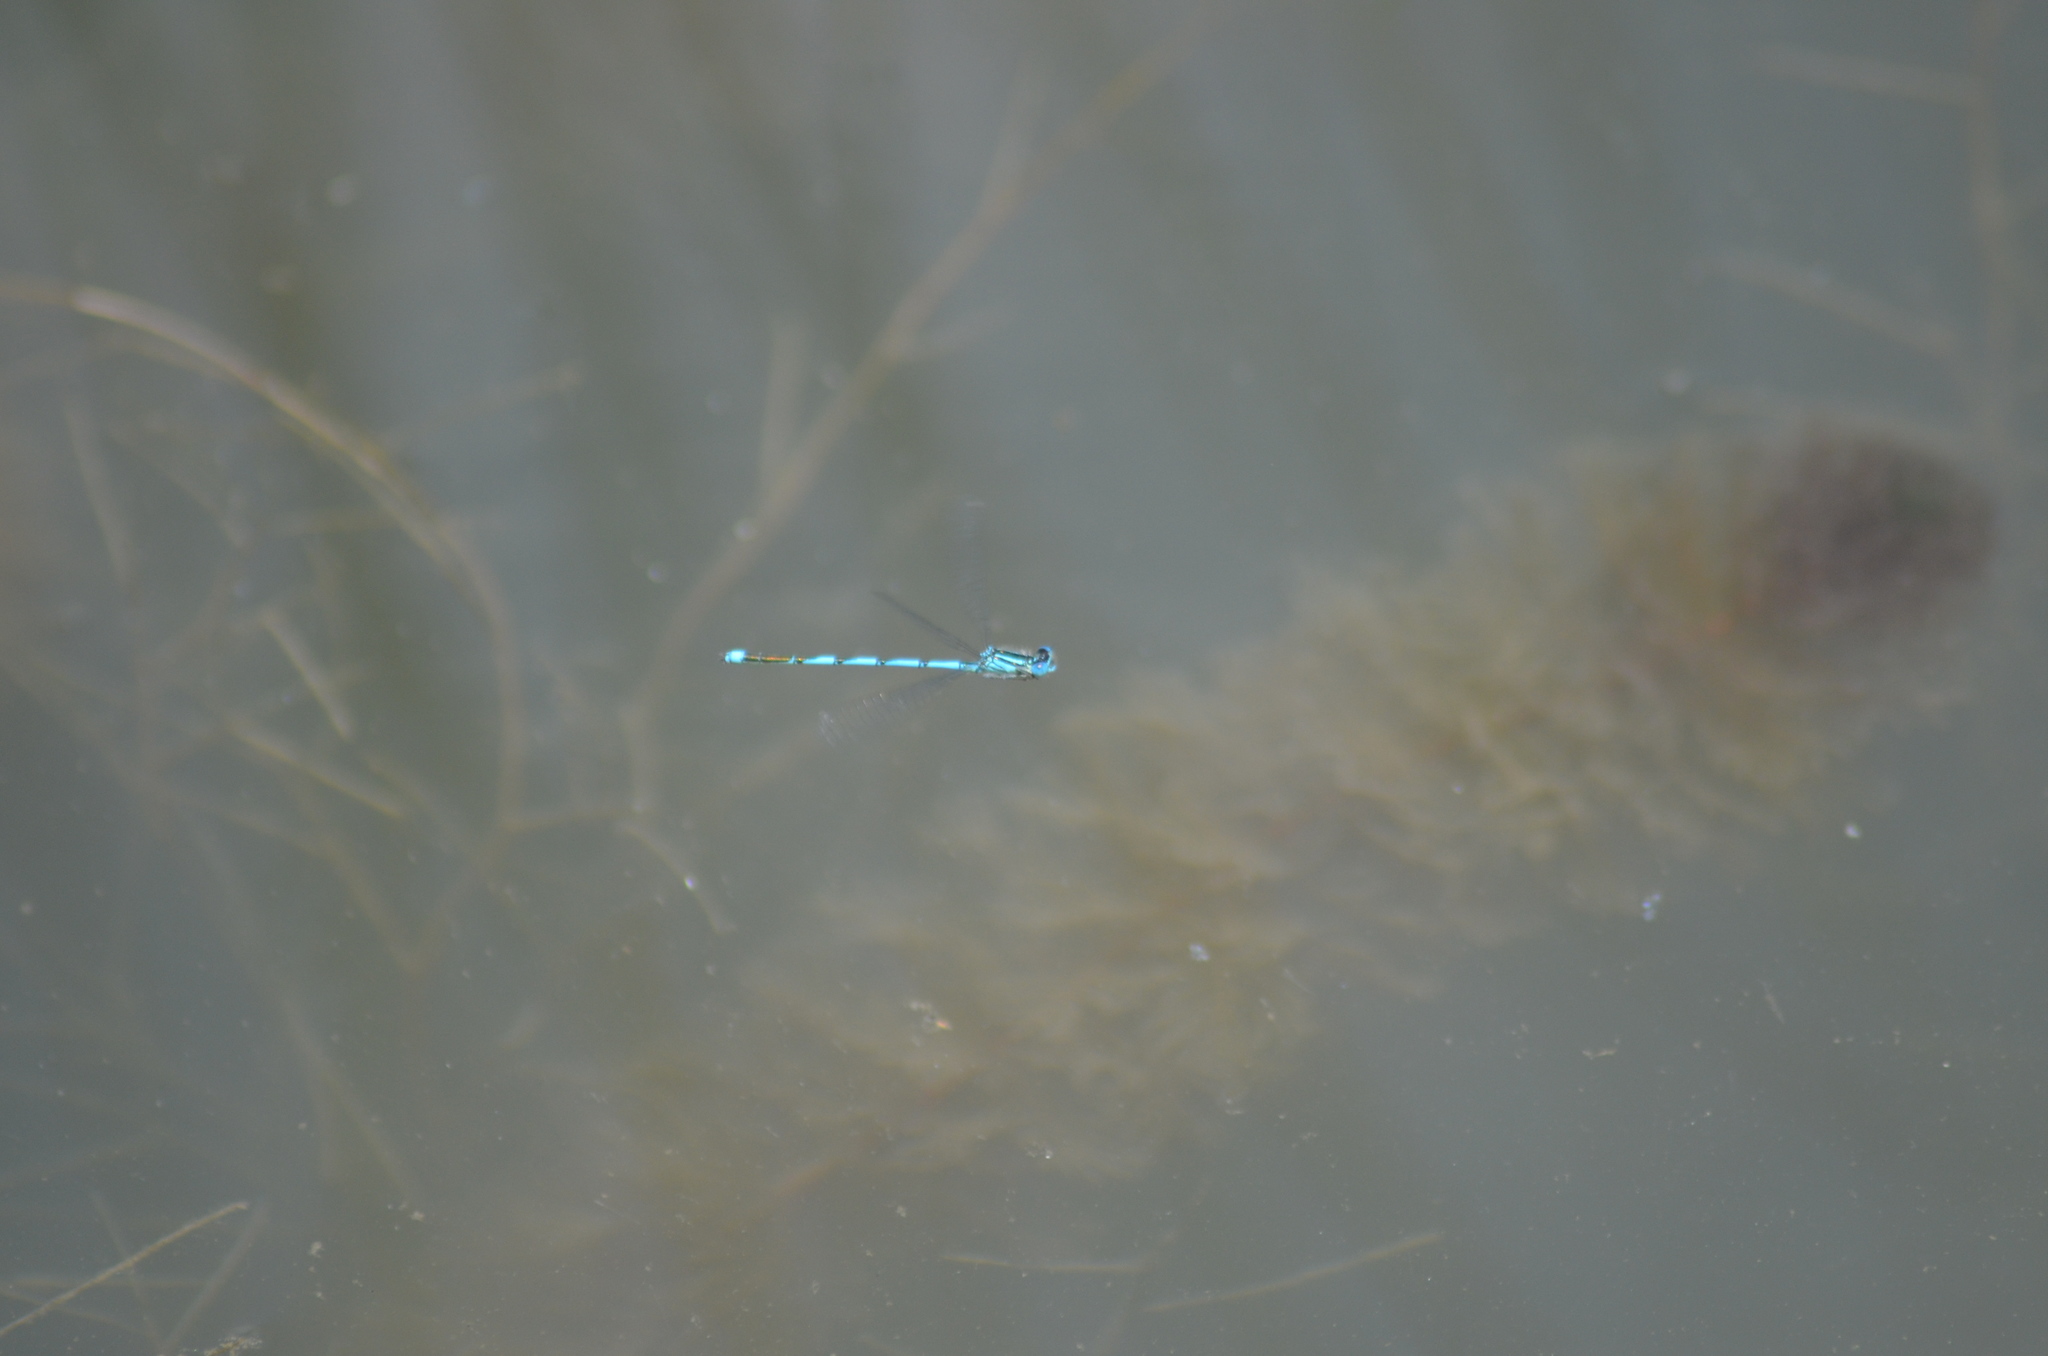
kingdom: Animalia
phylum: Arthropoda
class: Insecta
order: Odonata
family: Coenagrionidae
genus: Erythromma
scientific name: Erythromma lindenii
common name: Blue-eye
